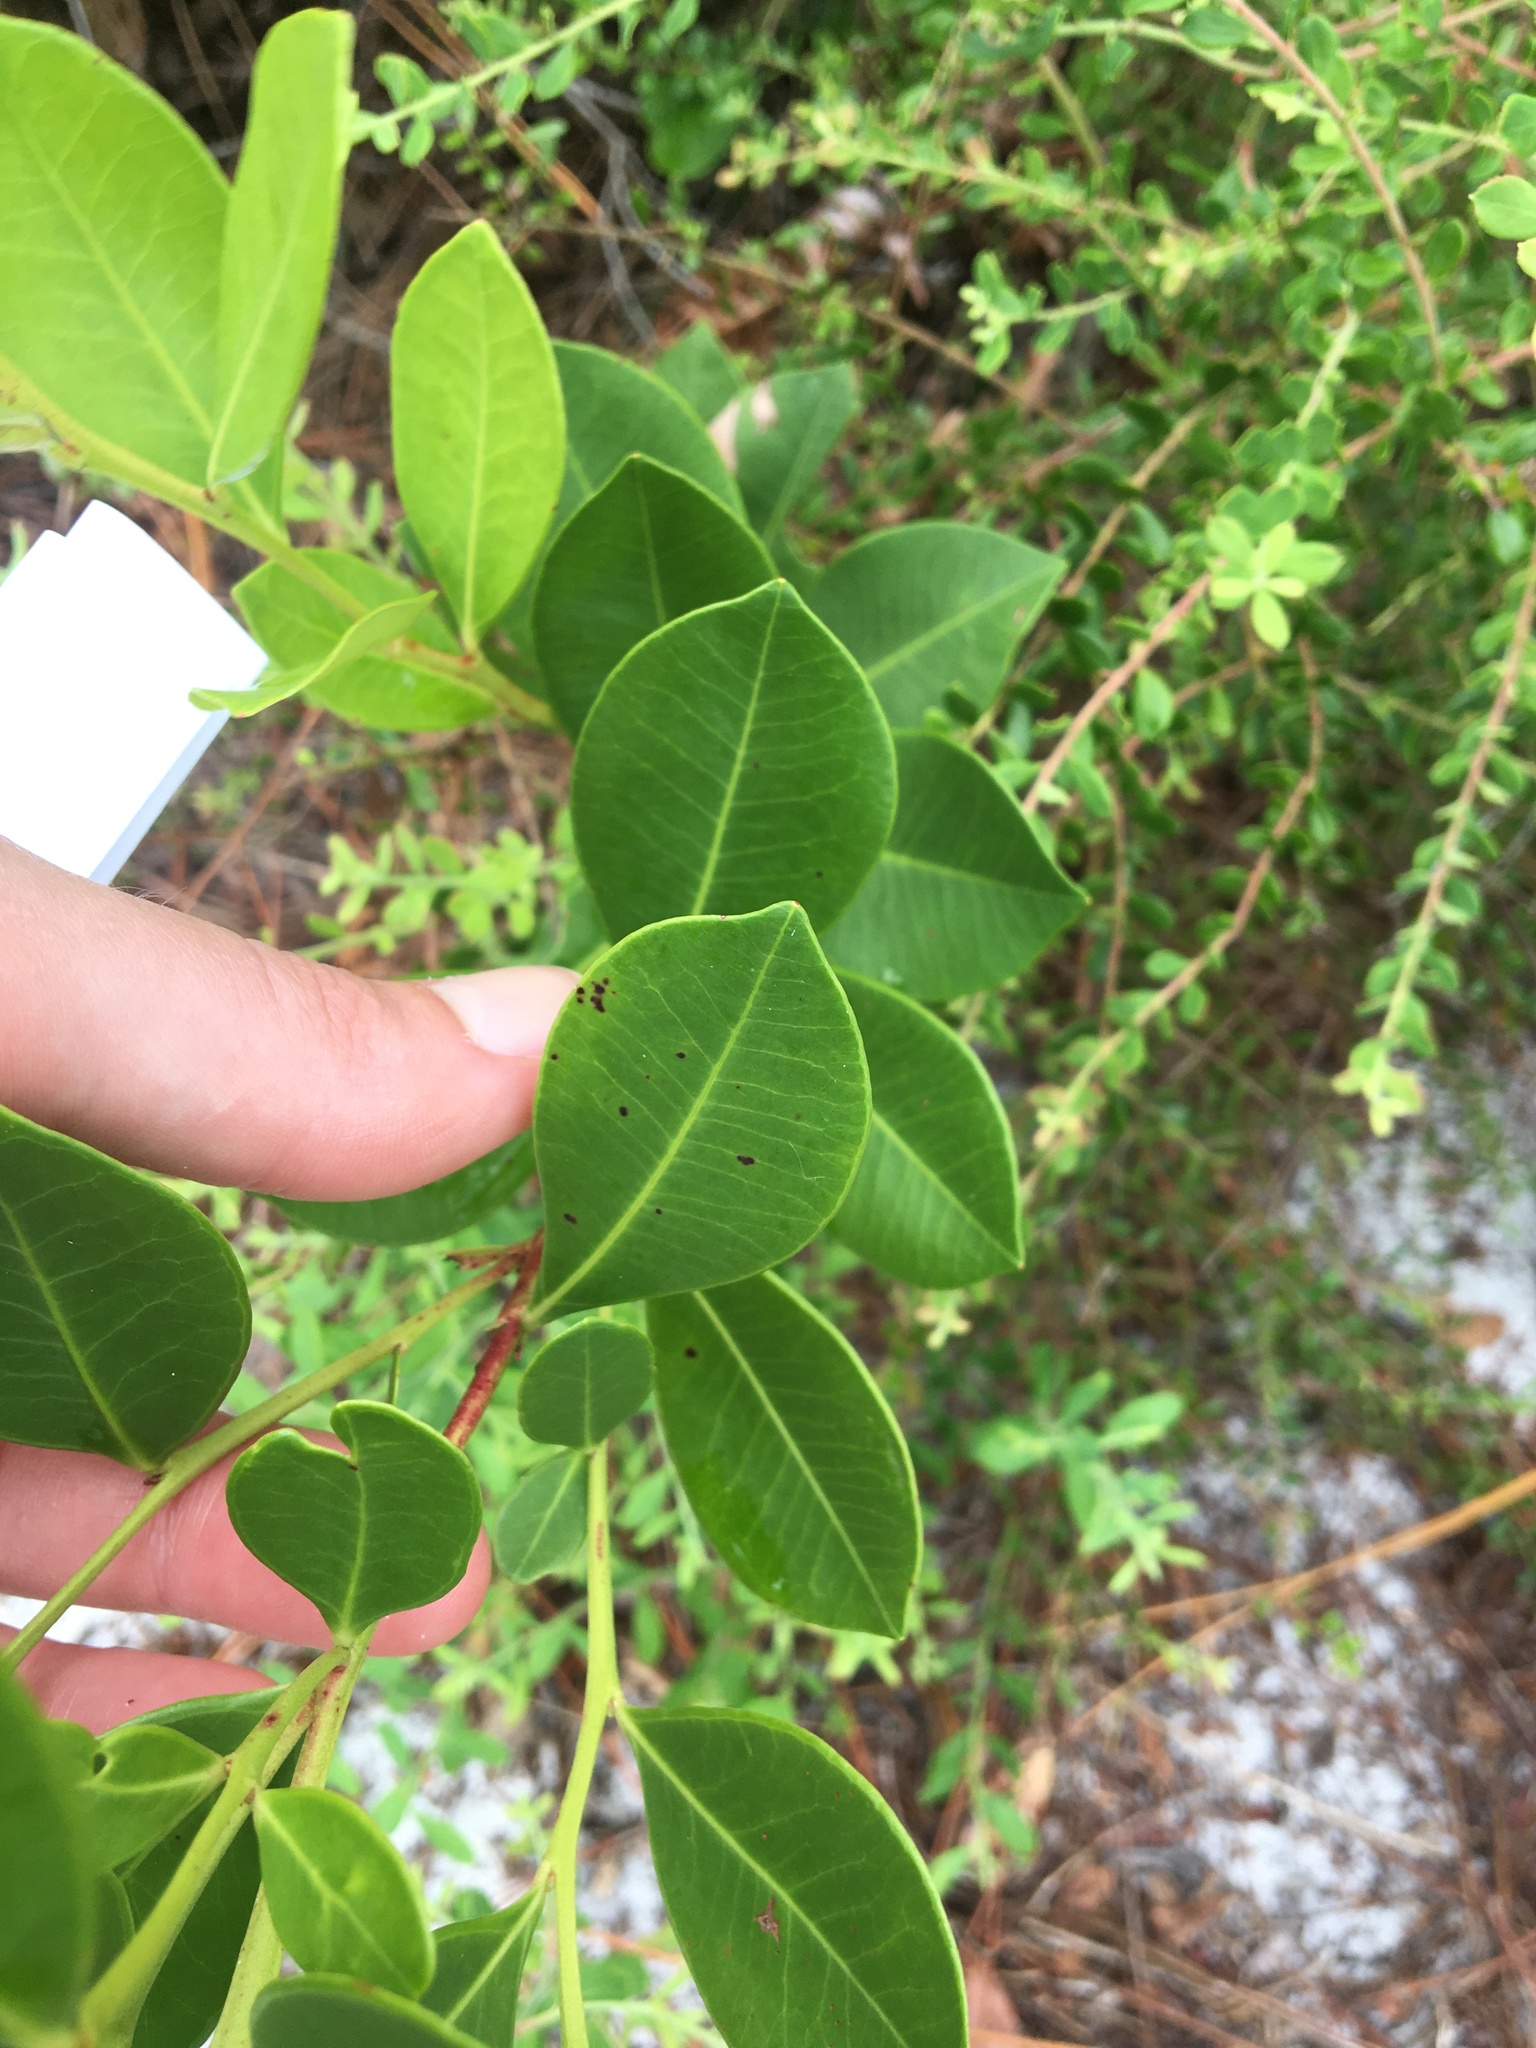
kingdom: Plantae
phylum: Tracheophyta
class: Magnoliopsida
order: Ericales
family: Ericaceae
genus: Lyonia
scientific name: Lyonia lucida
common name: Fetterbush
